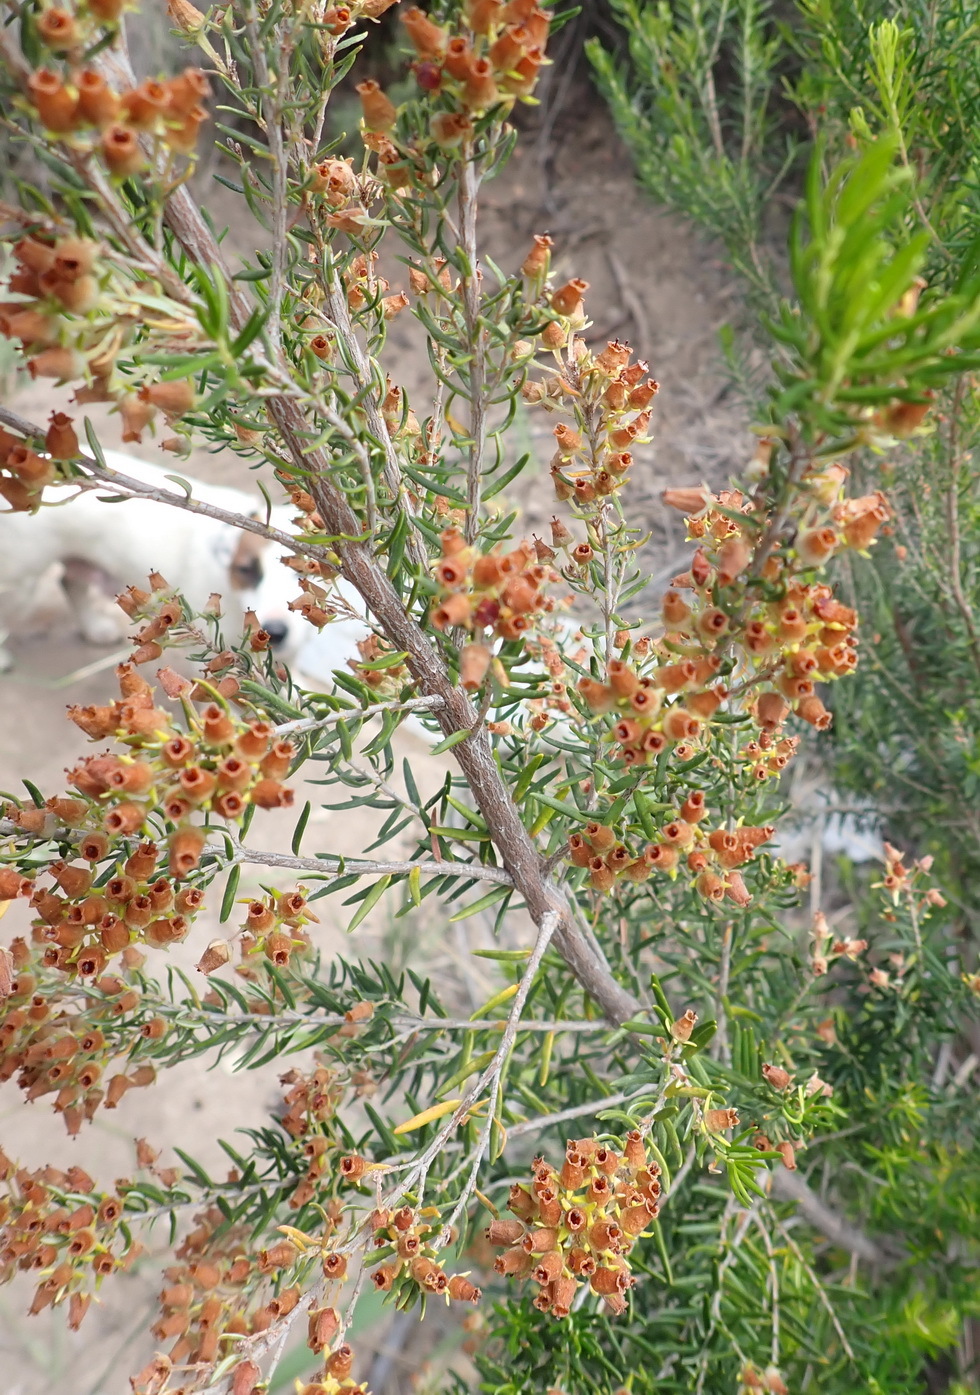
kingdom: Plantae
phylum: Tracheophyta
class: Magnoliopsida
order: Ericales
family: Ericaceae
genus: Erica
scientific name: Erica caffra
